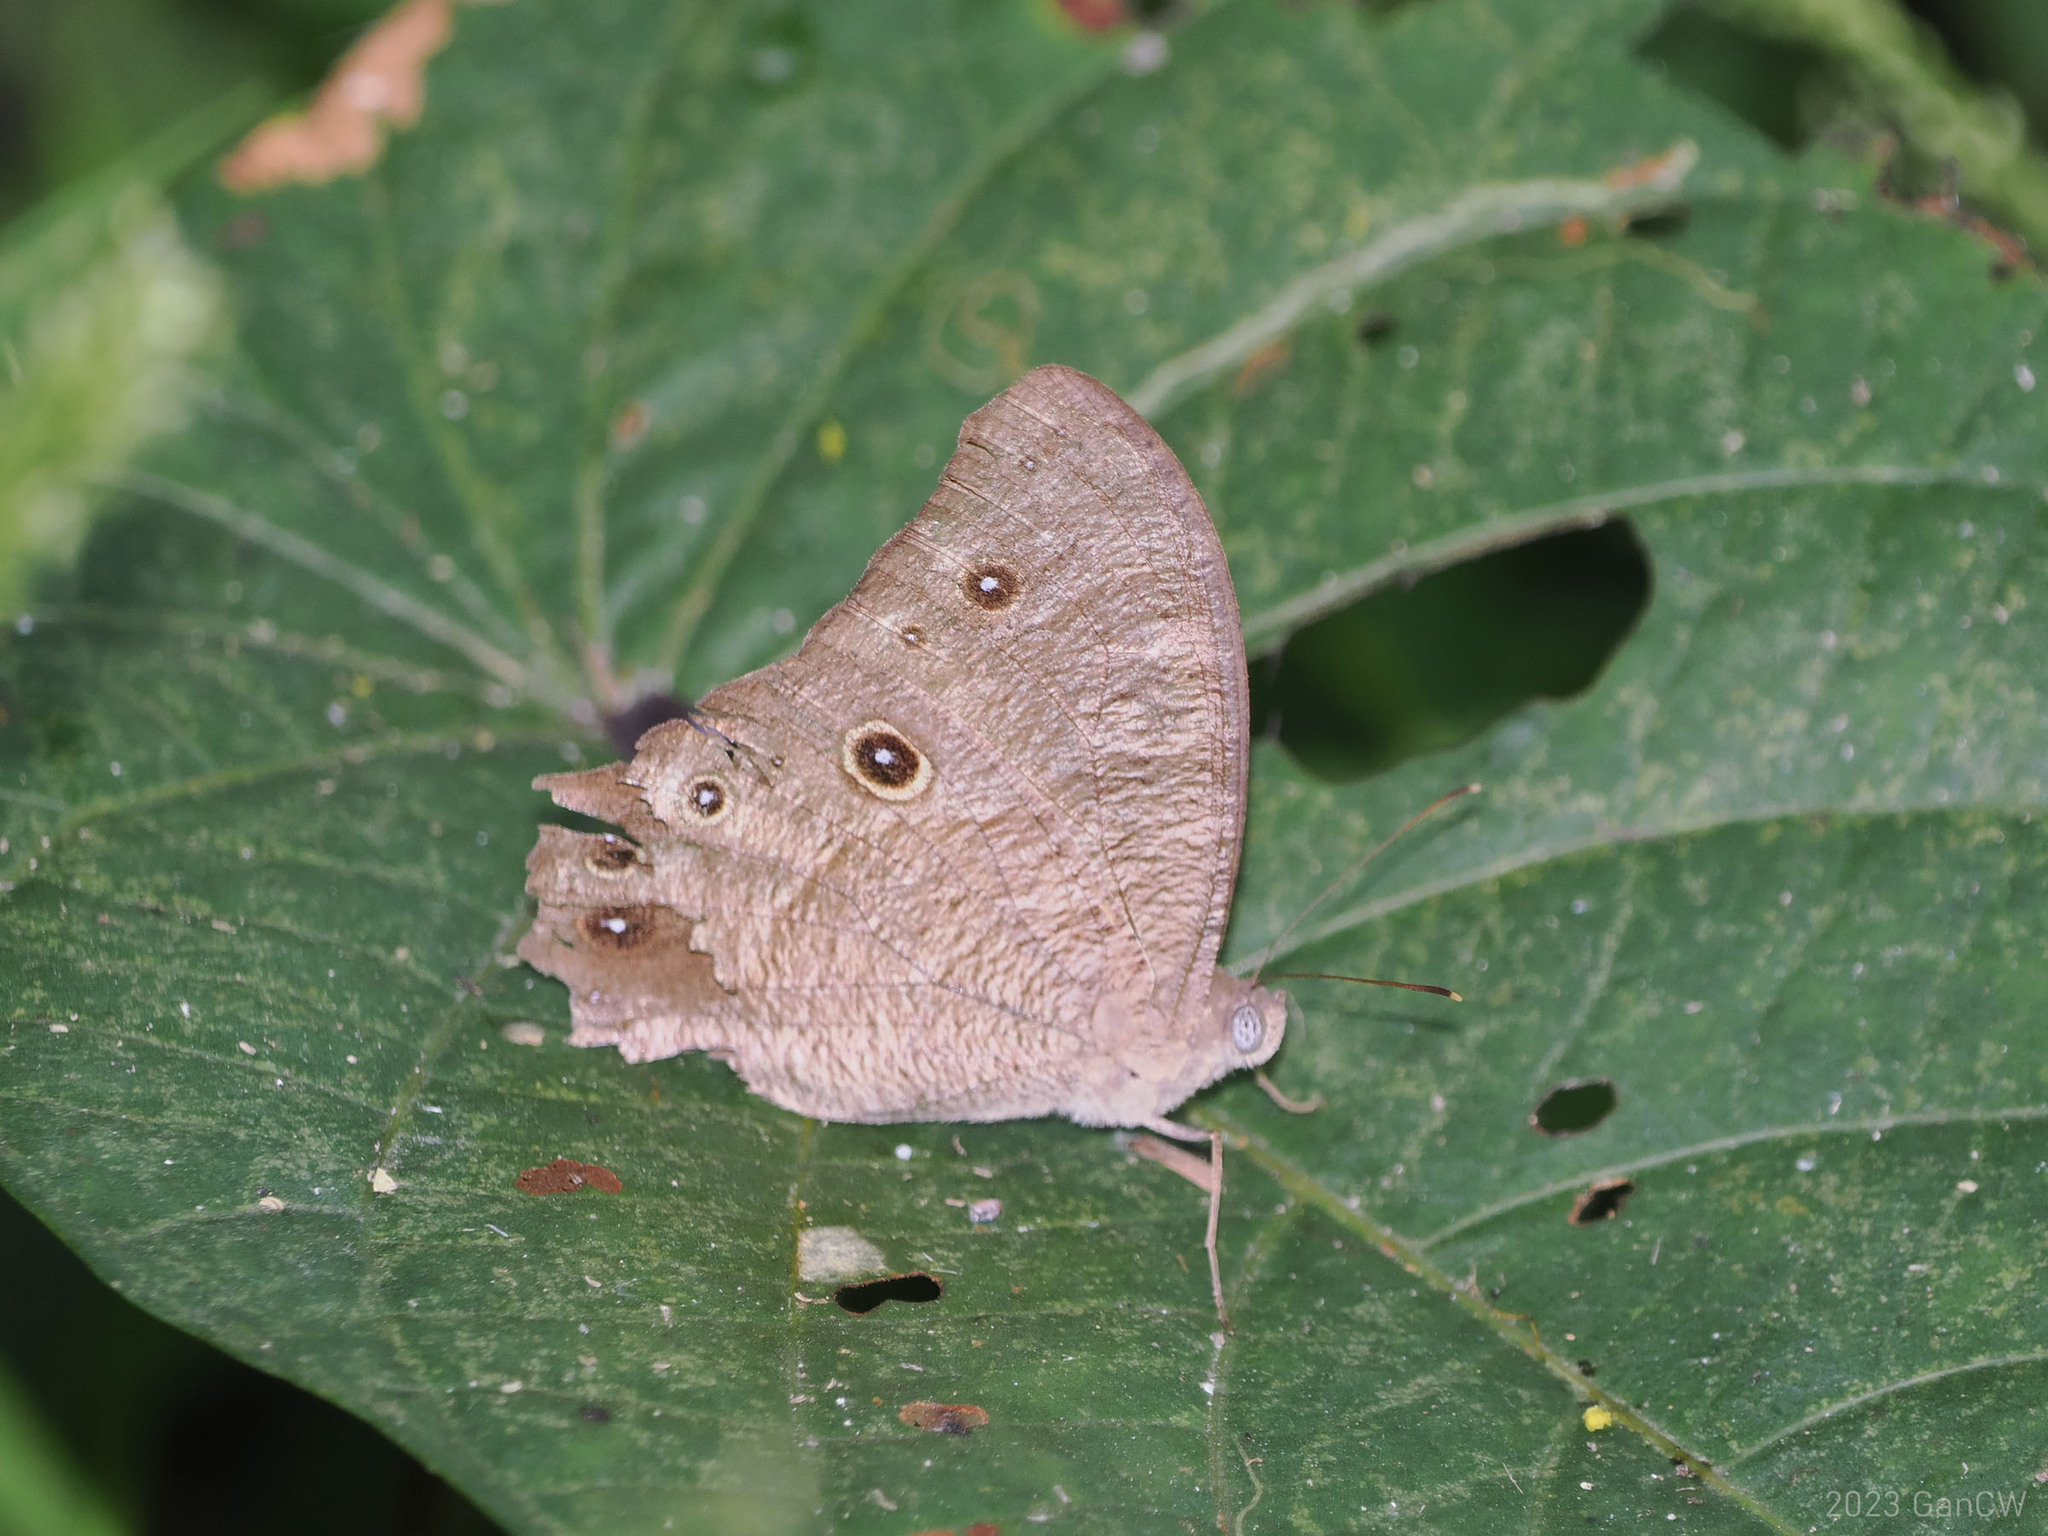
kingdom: Animalia
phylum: Arthropoda
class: Insecta
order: Lepidoptera
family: Nymphalidae
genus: Melanitis
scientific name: Melanitis leda
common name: Twilight brown
